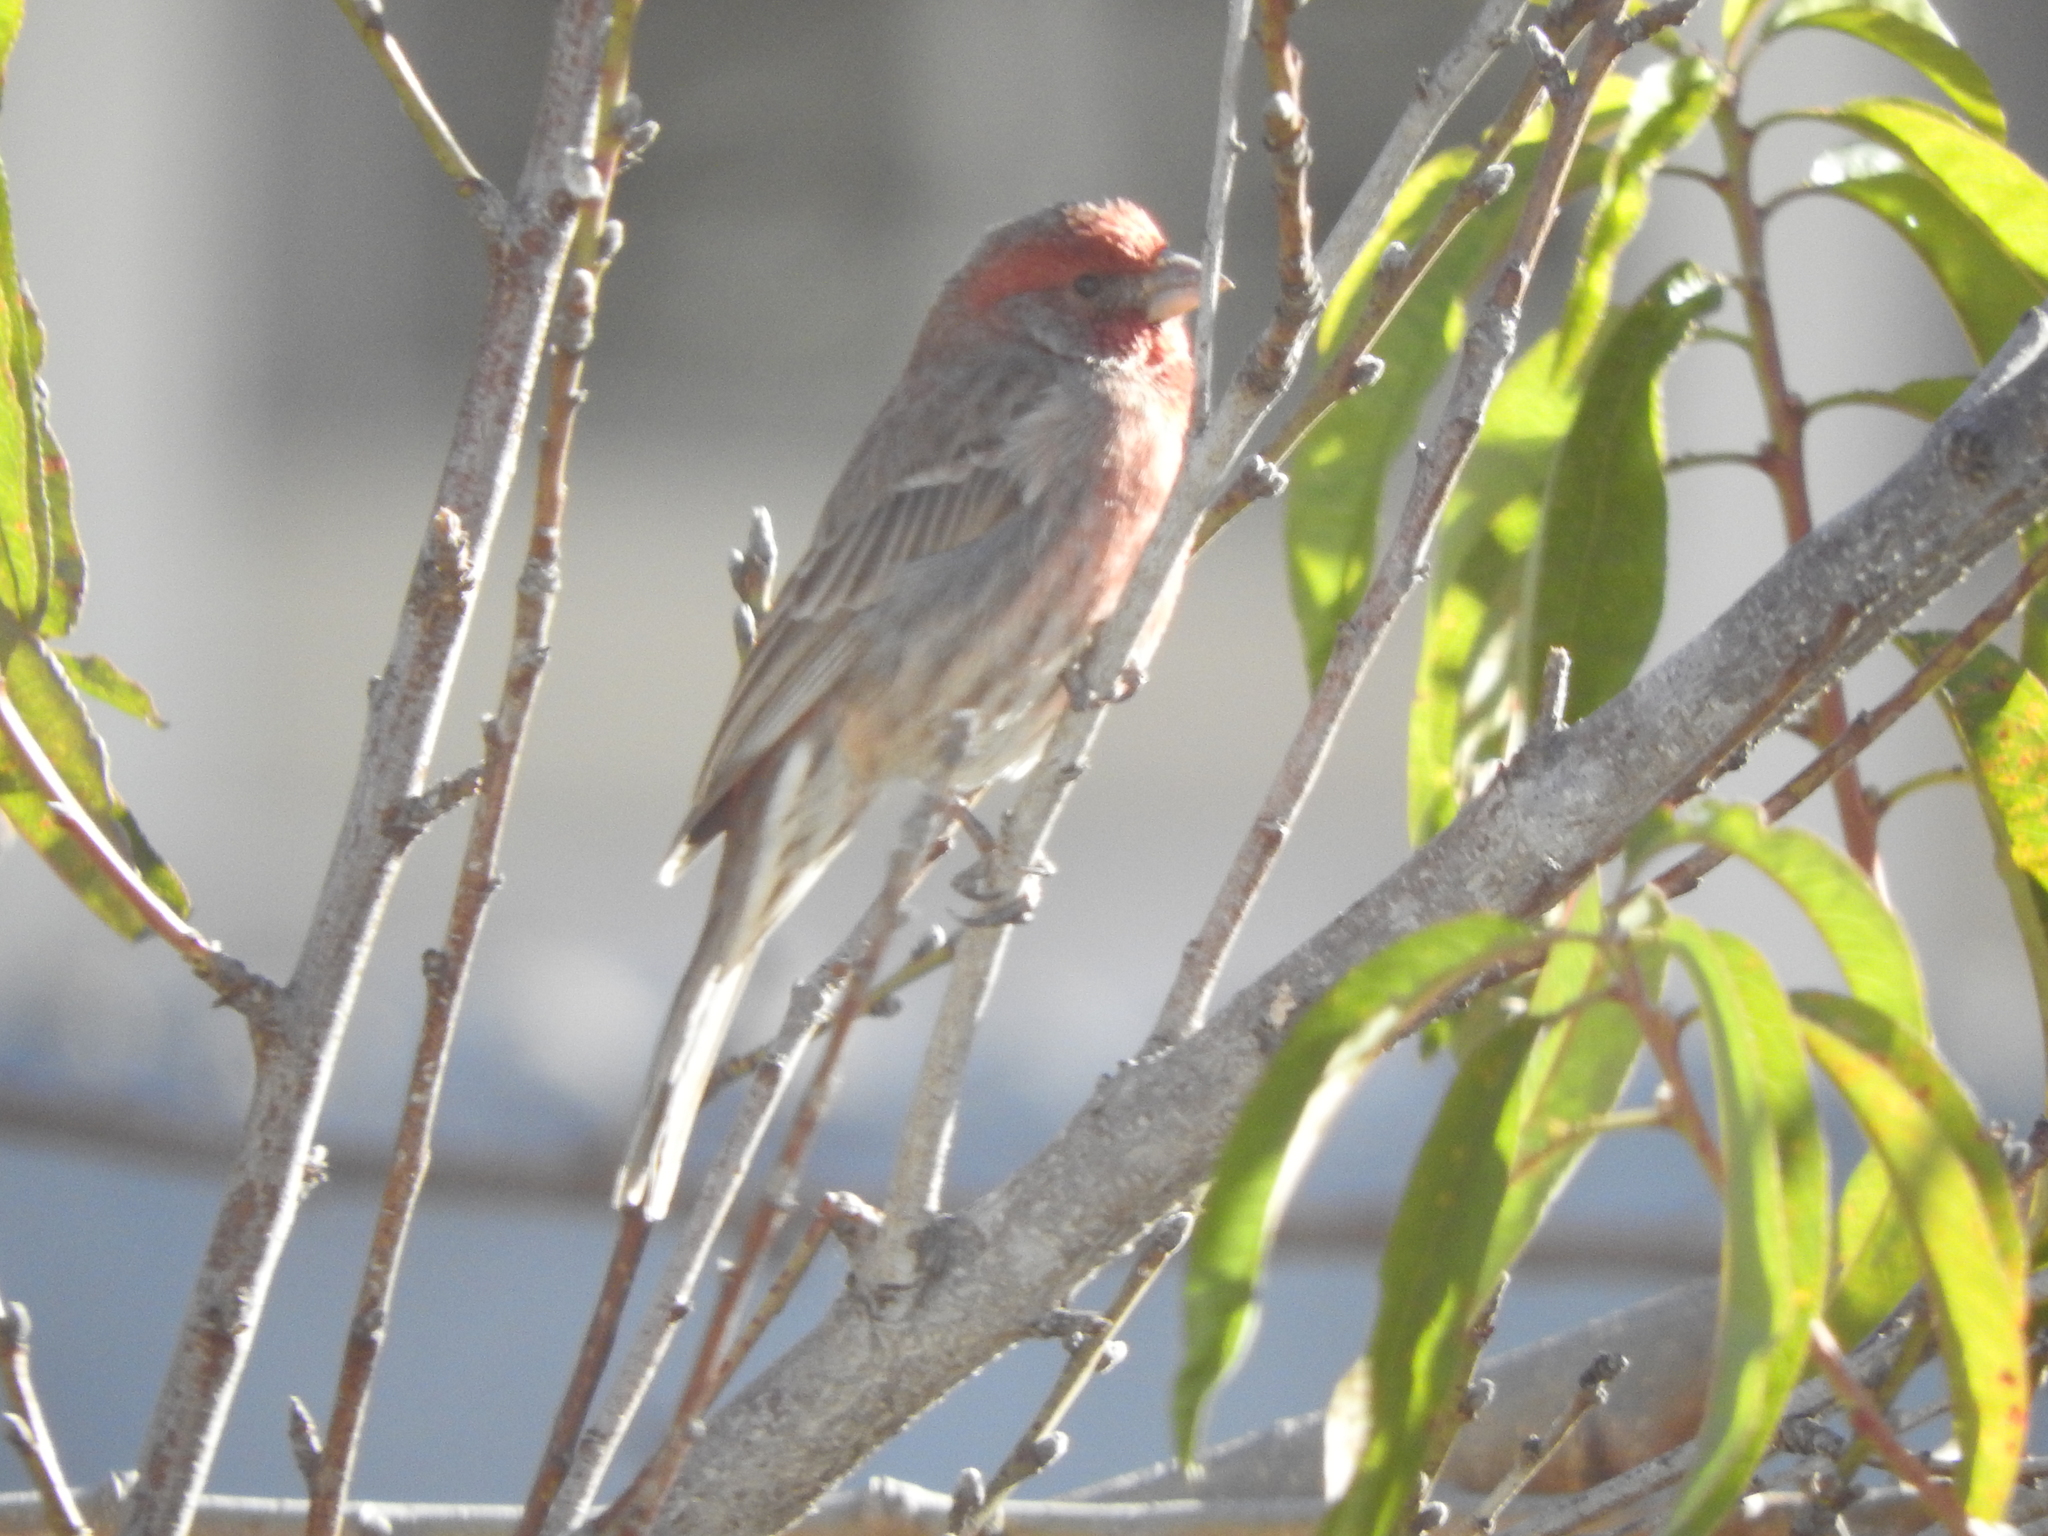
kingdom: Animalia
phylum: Chordata
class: Aves
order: Passeriformes
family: Fringillidae
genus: Haemorhous
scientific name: Haemorhous mexicanus
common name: House finch
